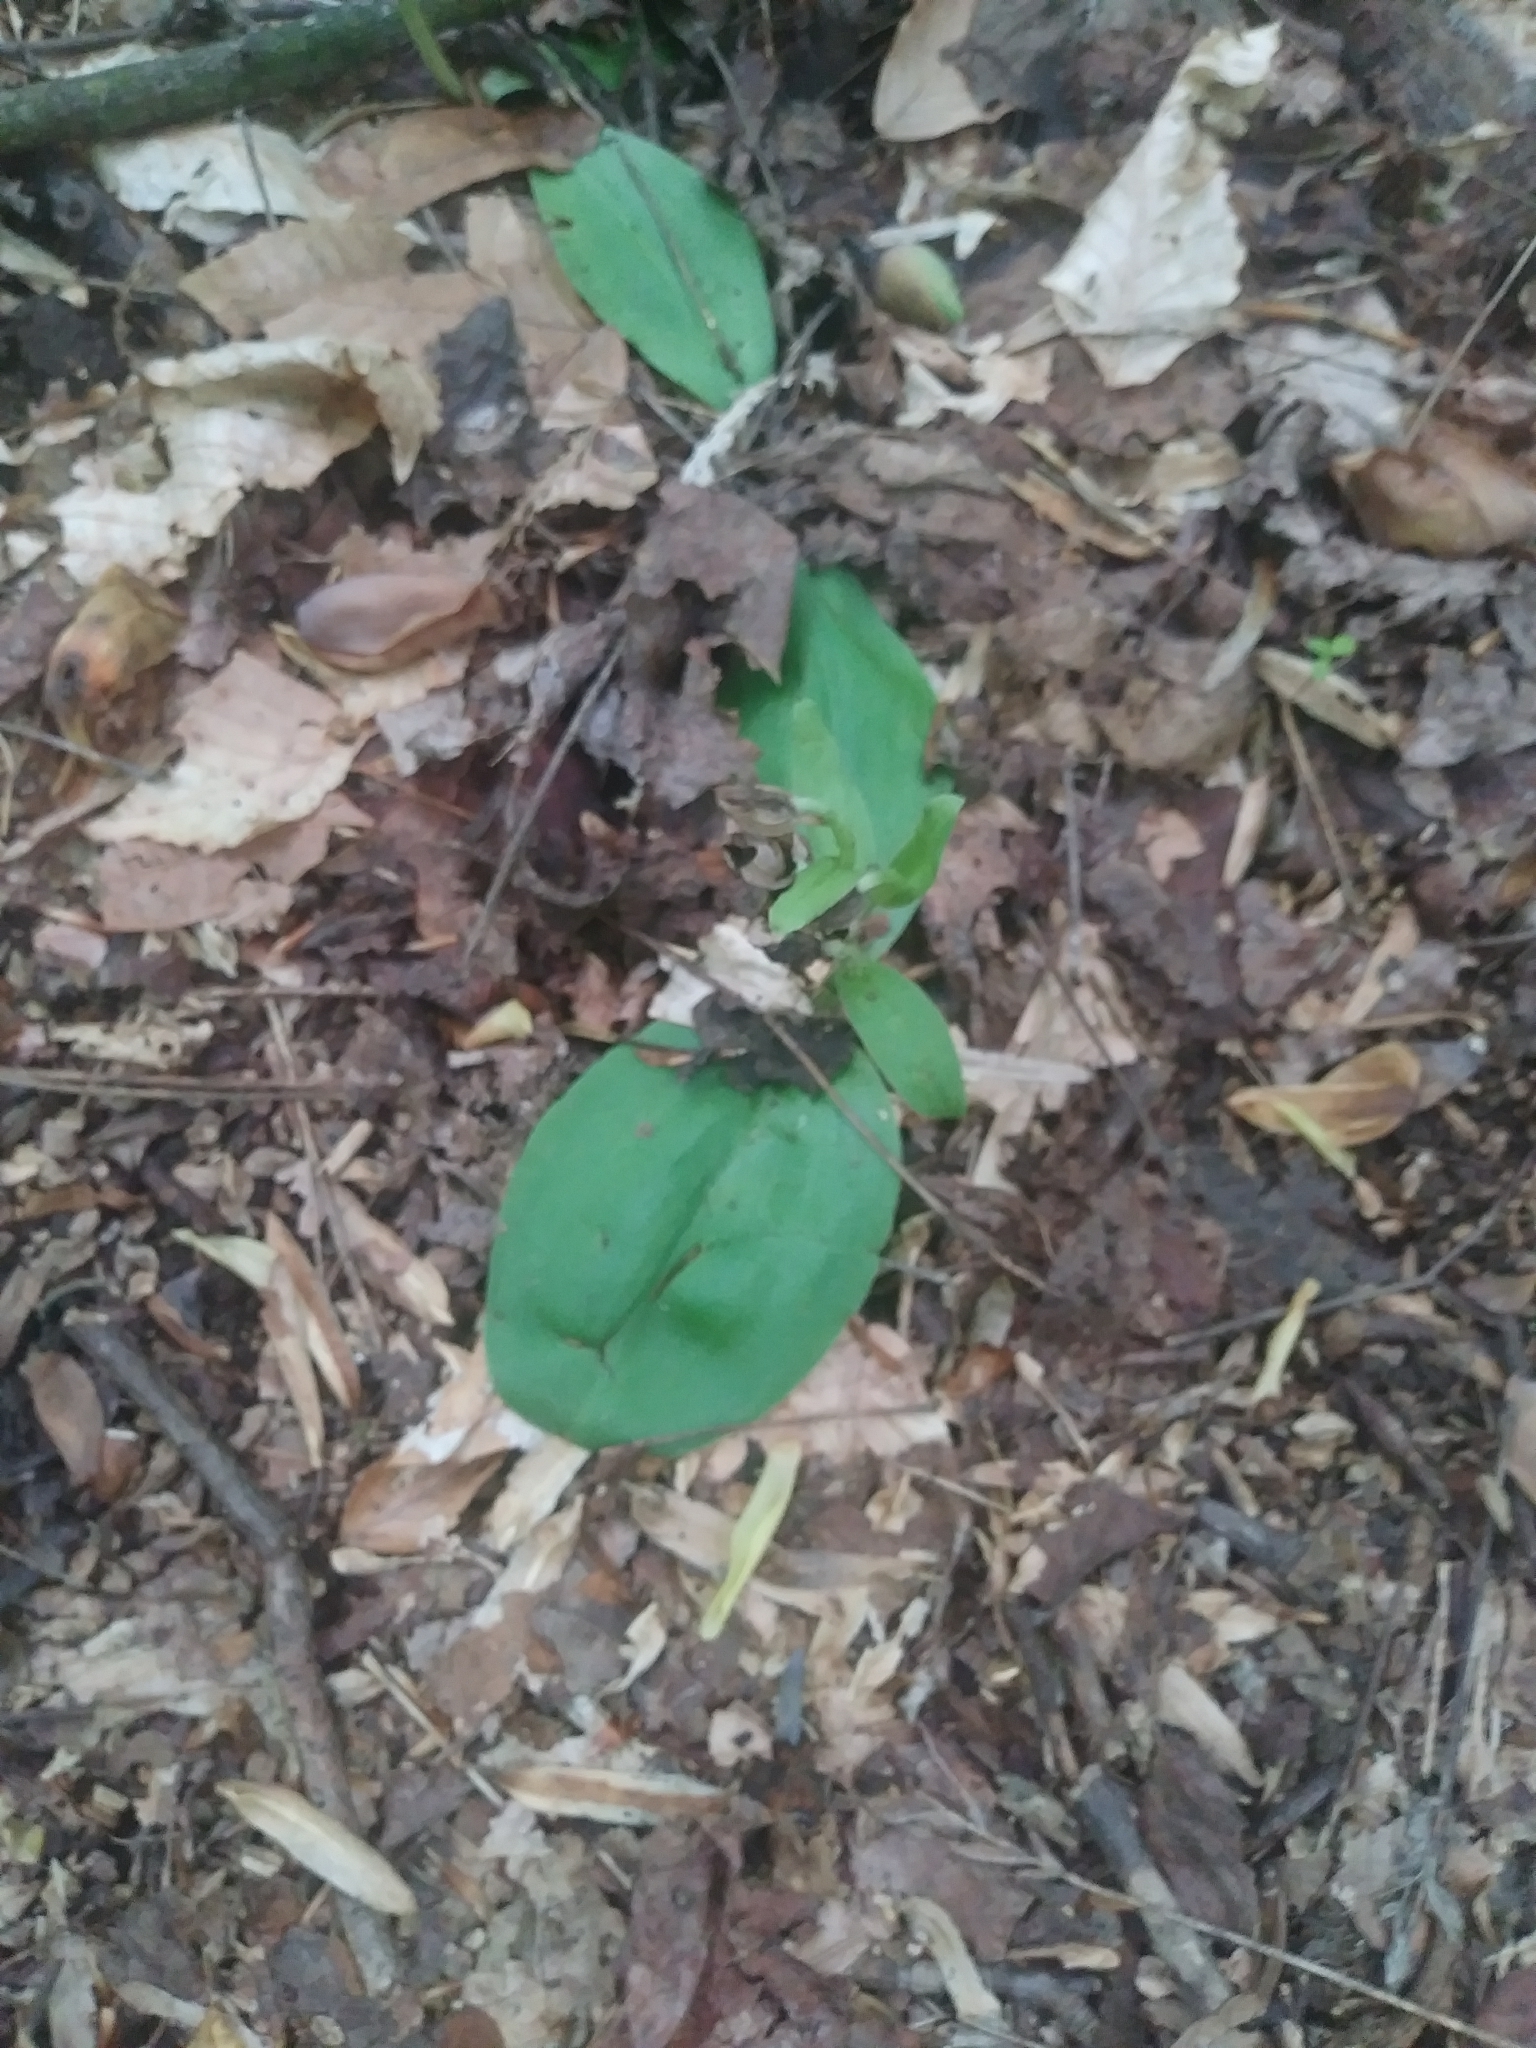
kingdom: Plantae
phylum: Tracheophyta
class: Liliopsida
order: Asparagales
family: Orchidaceae
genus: Galearis
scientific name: Galearis spectabilis
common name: Purple-hooded orchis
